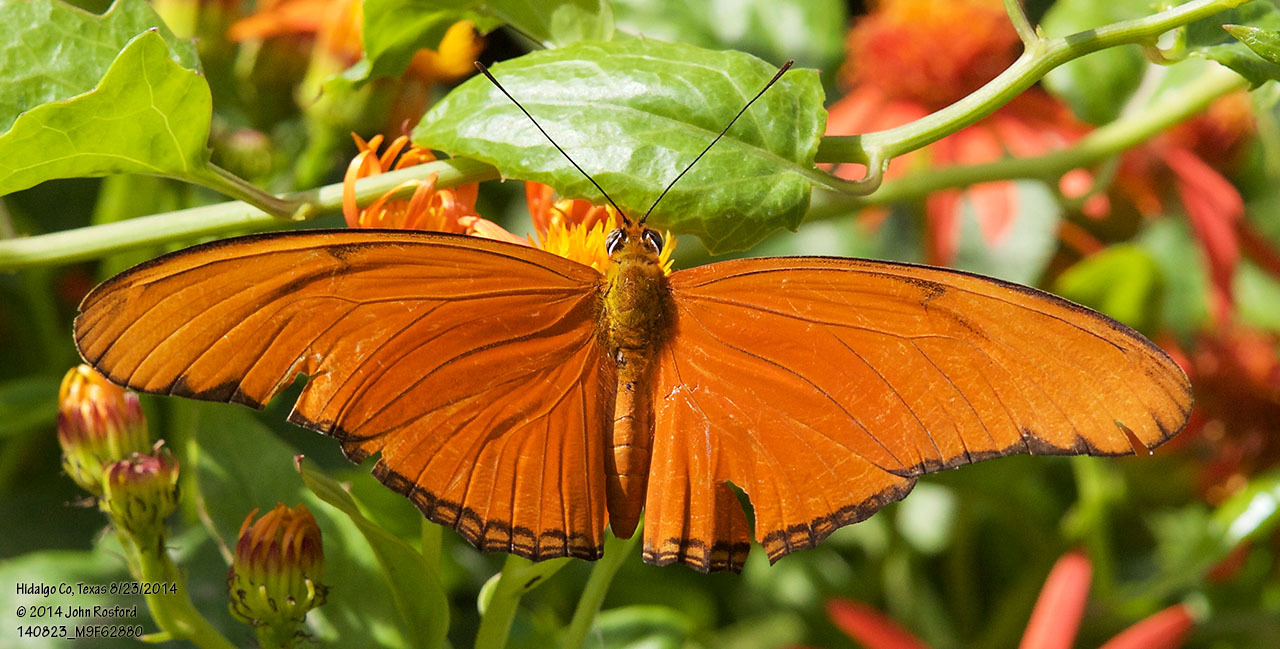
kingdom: Animalia
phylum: Arthropoda
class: Insecta
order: Lepidoptera
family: Nymphalidae
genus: Dryas
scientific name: Dryas iulia
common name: Flambeau
